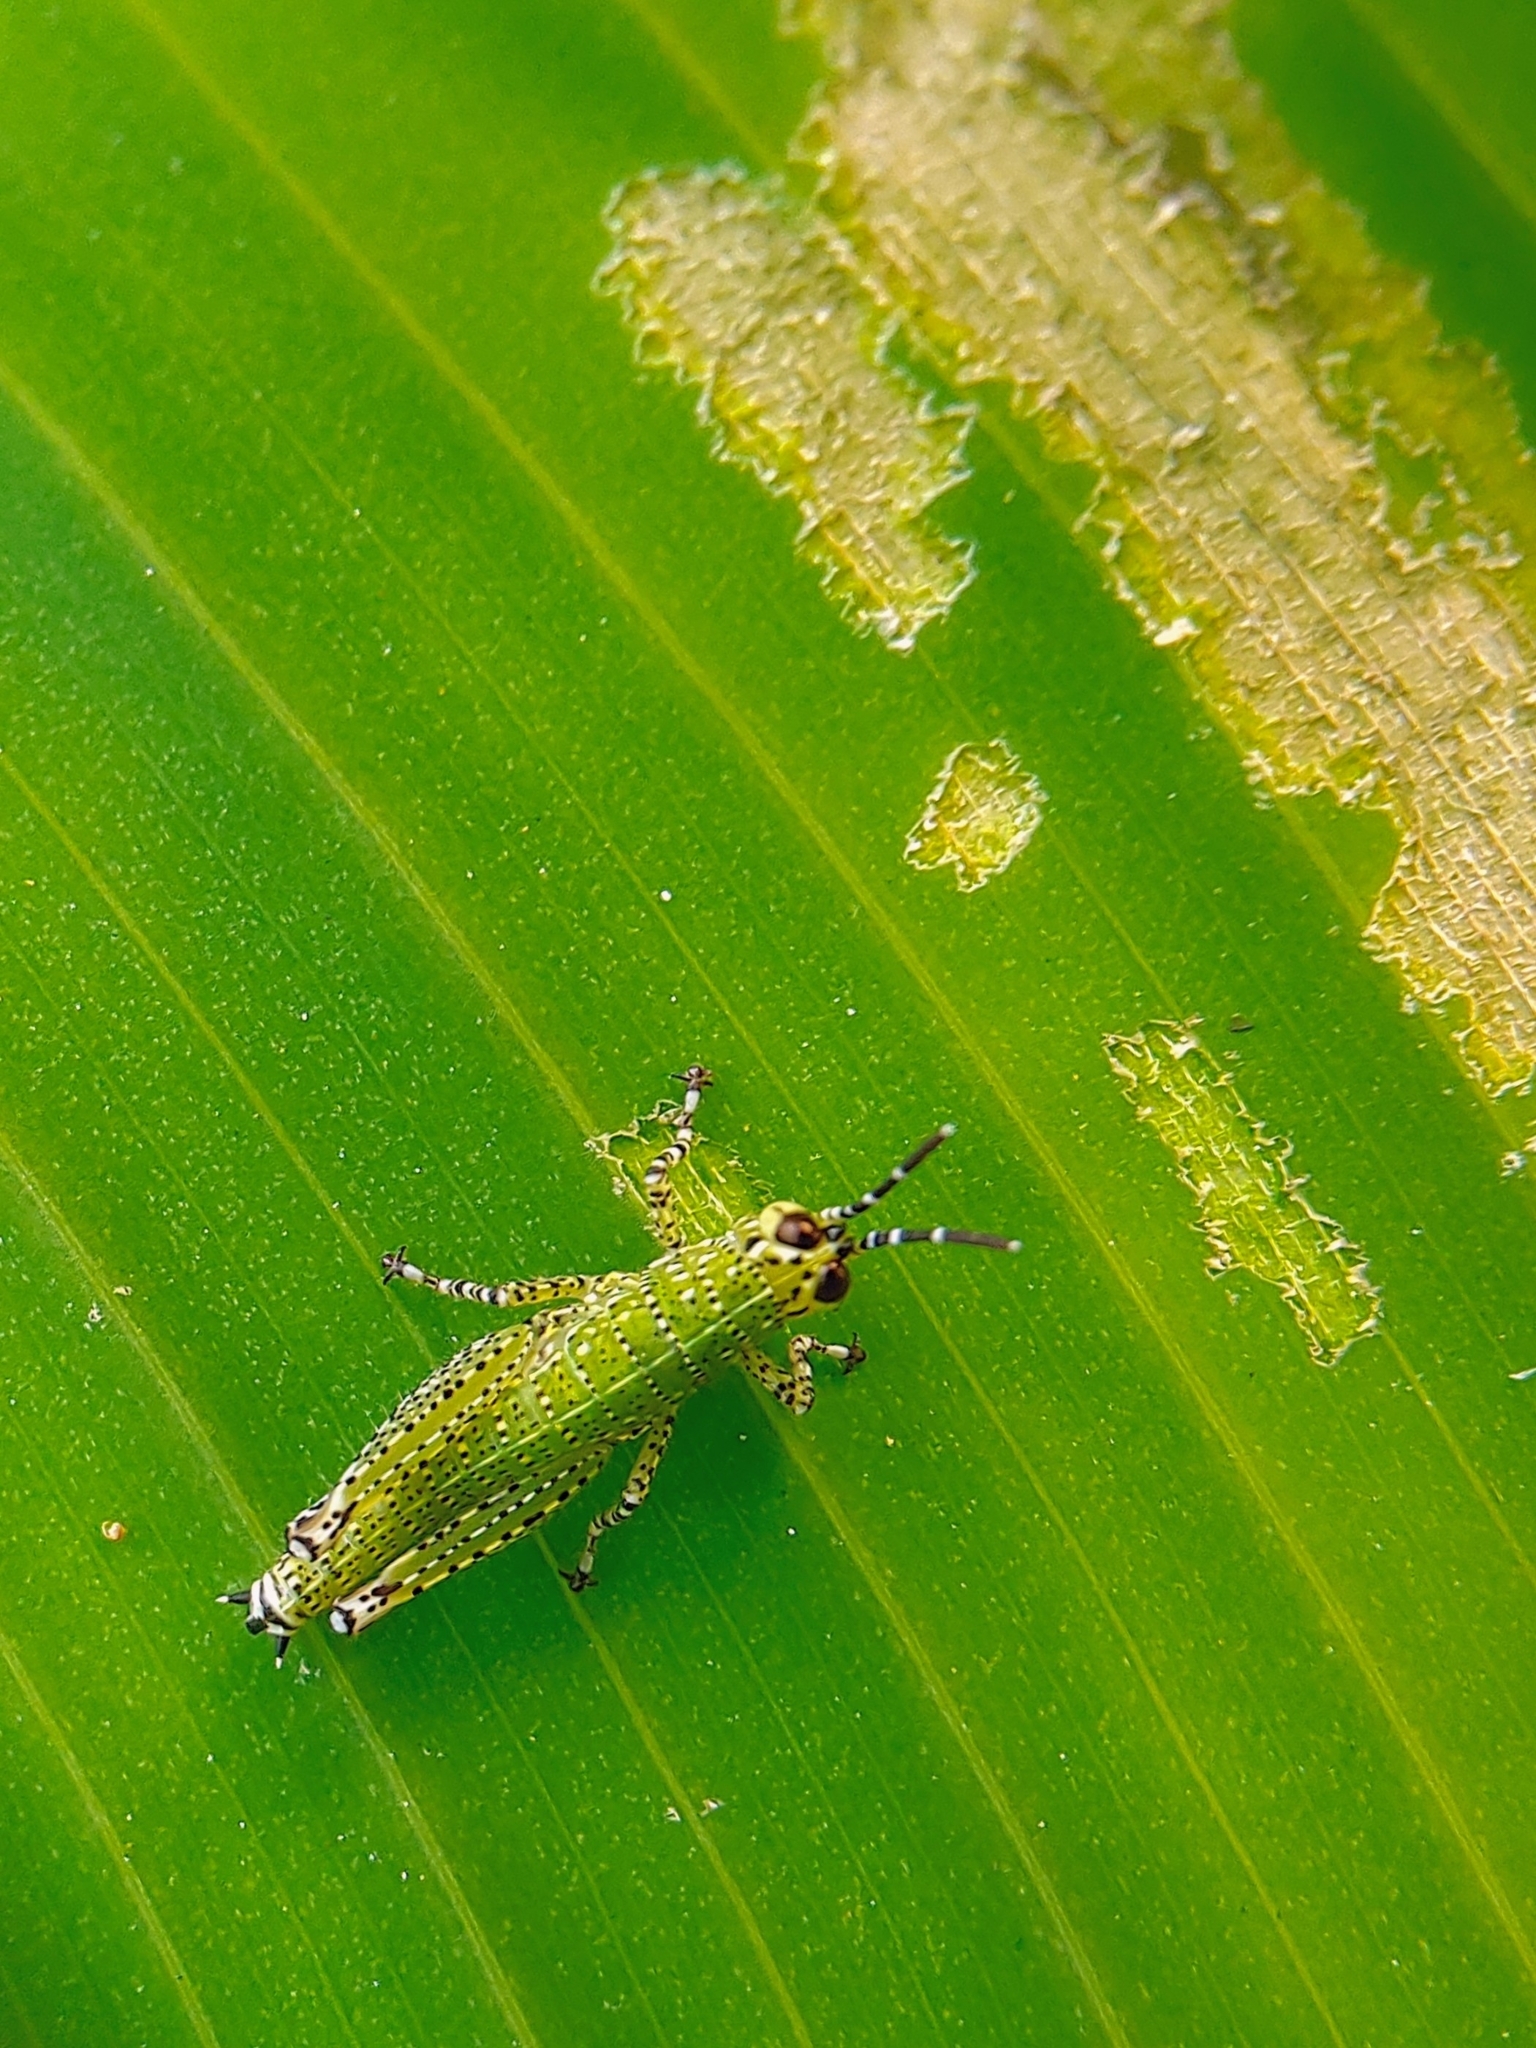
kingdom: Animalia
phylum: Arthropoda
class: Insecta
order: Orthoptera
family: Acrididae
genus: Xenocatantops
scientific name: Xenocatantops humile
